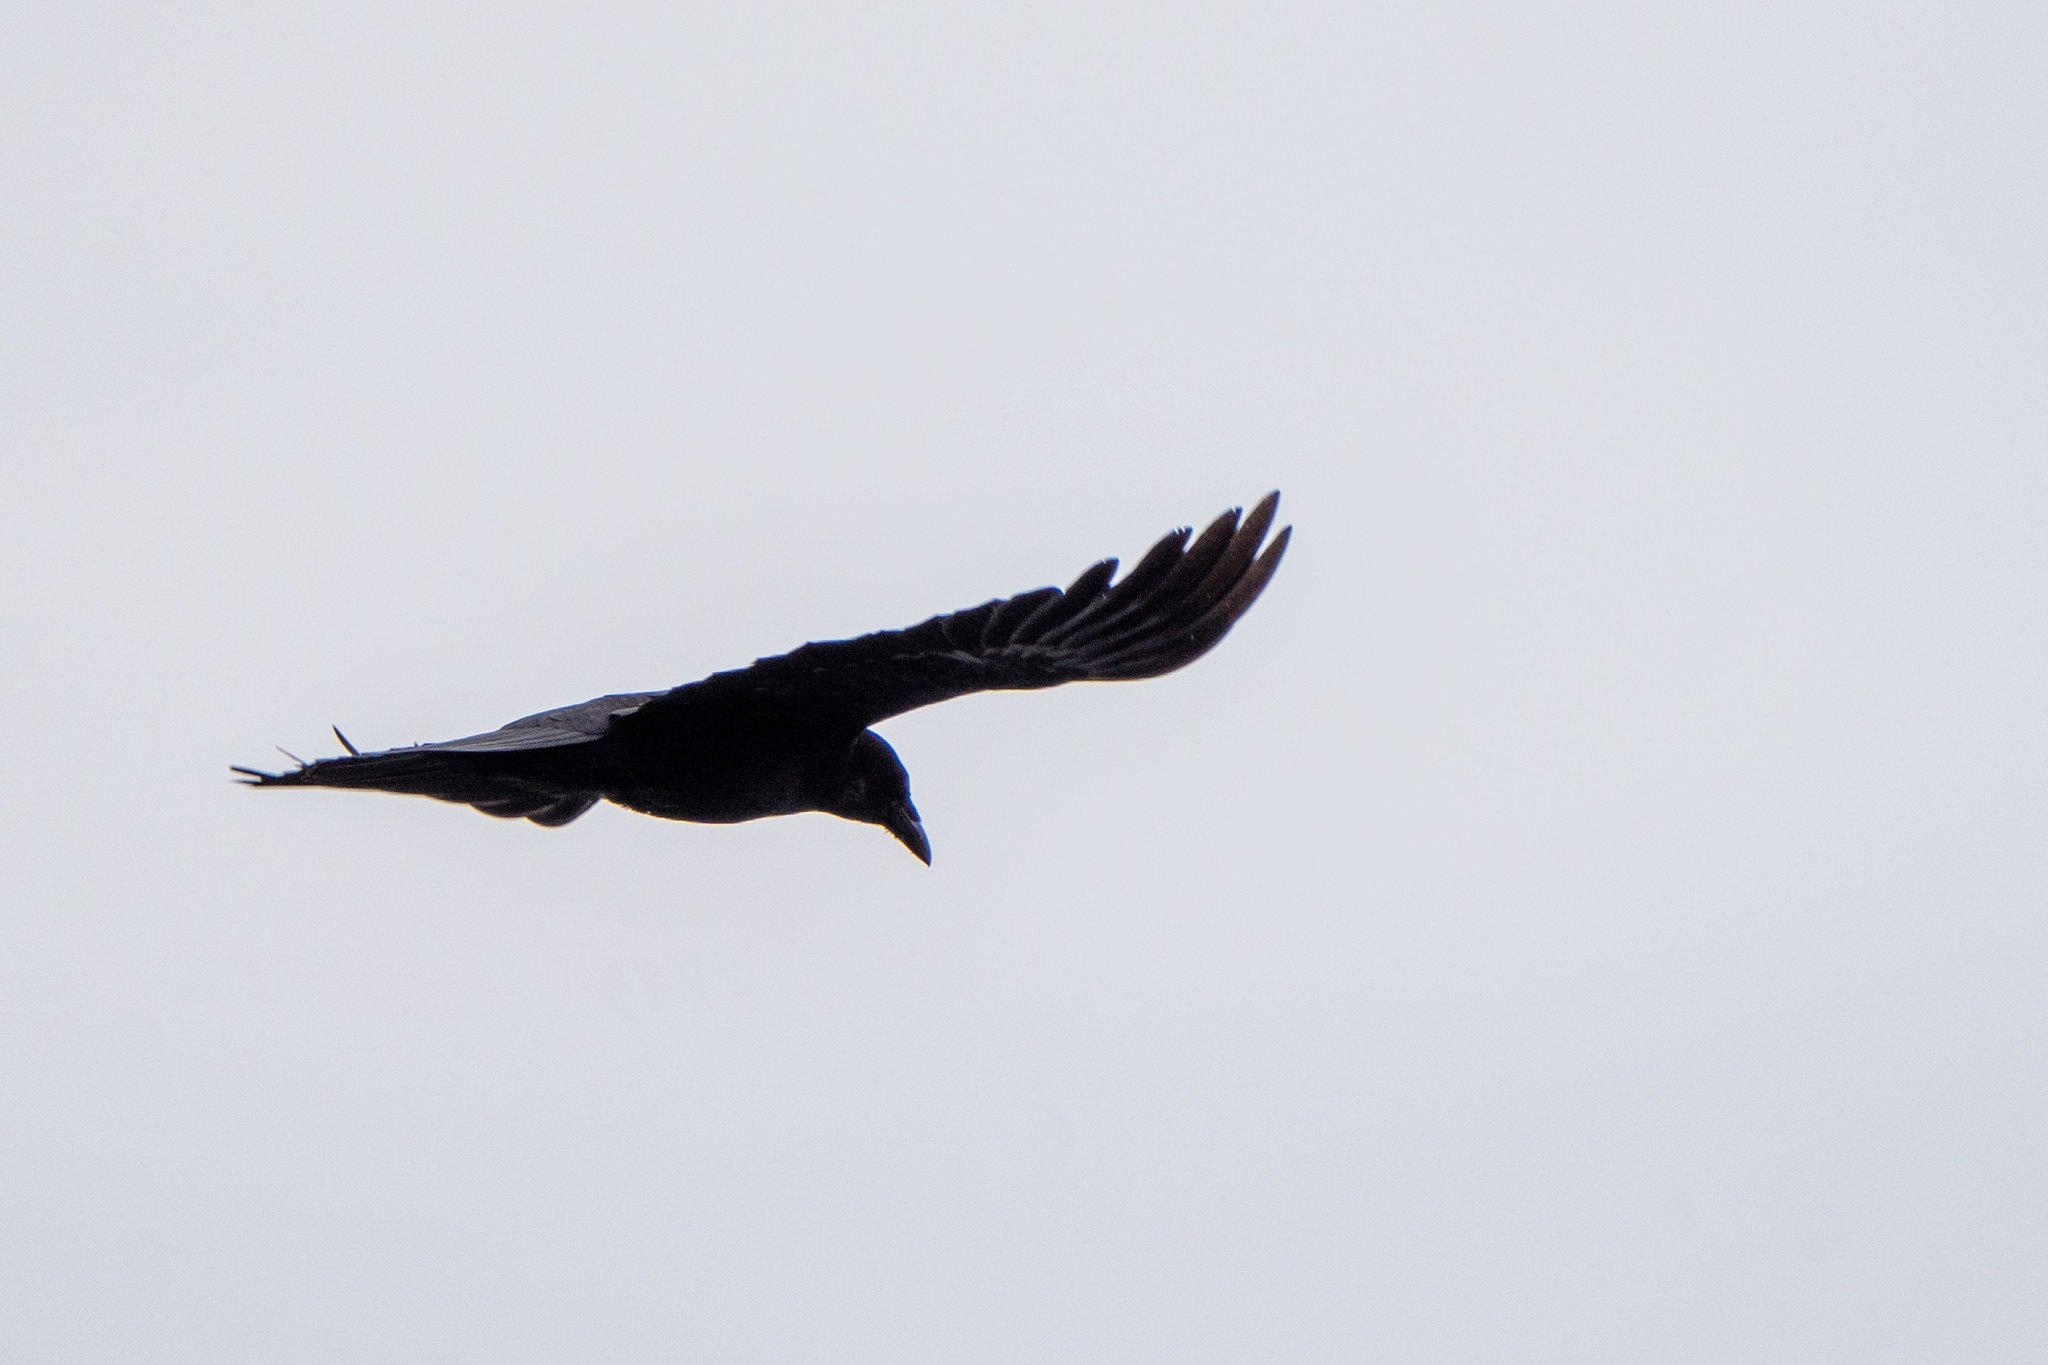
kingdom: Animalia
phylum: Chordata
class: Aves
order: Passeriformes
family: Corvidae
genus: Corvus
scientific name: Corvus brachyrhynchos
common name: American crow
